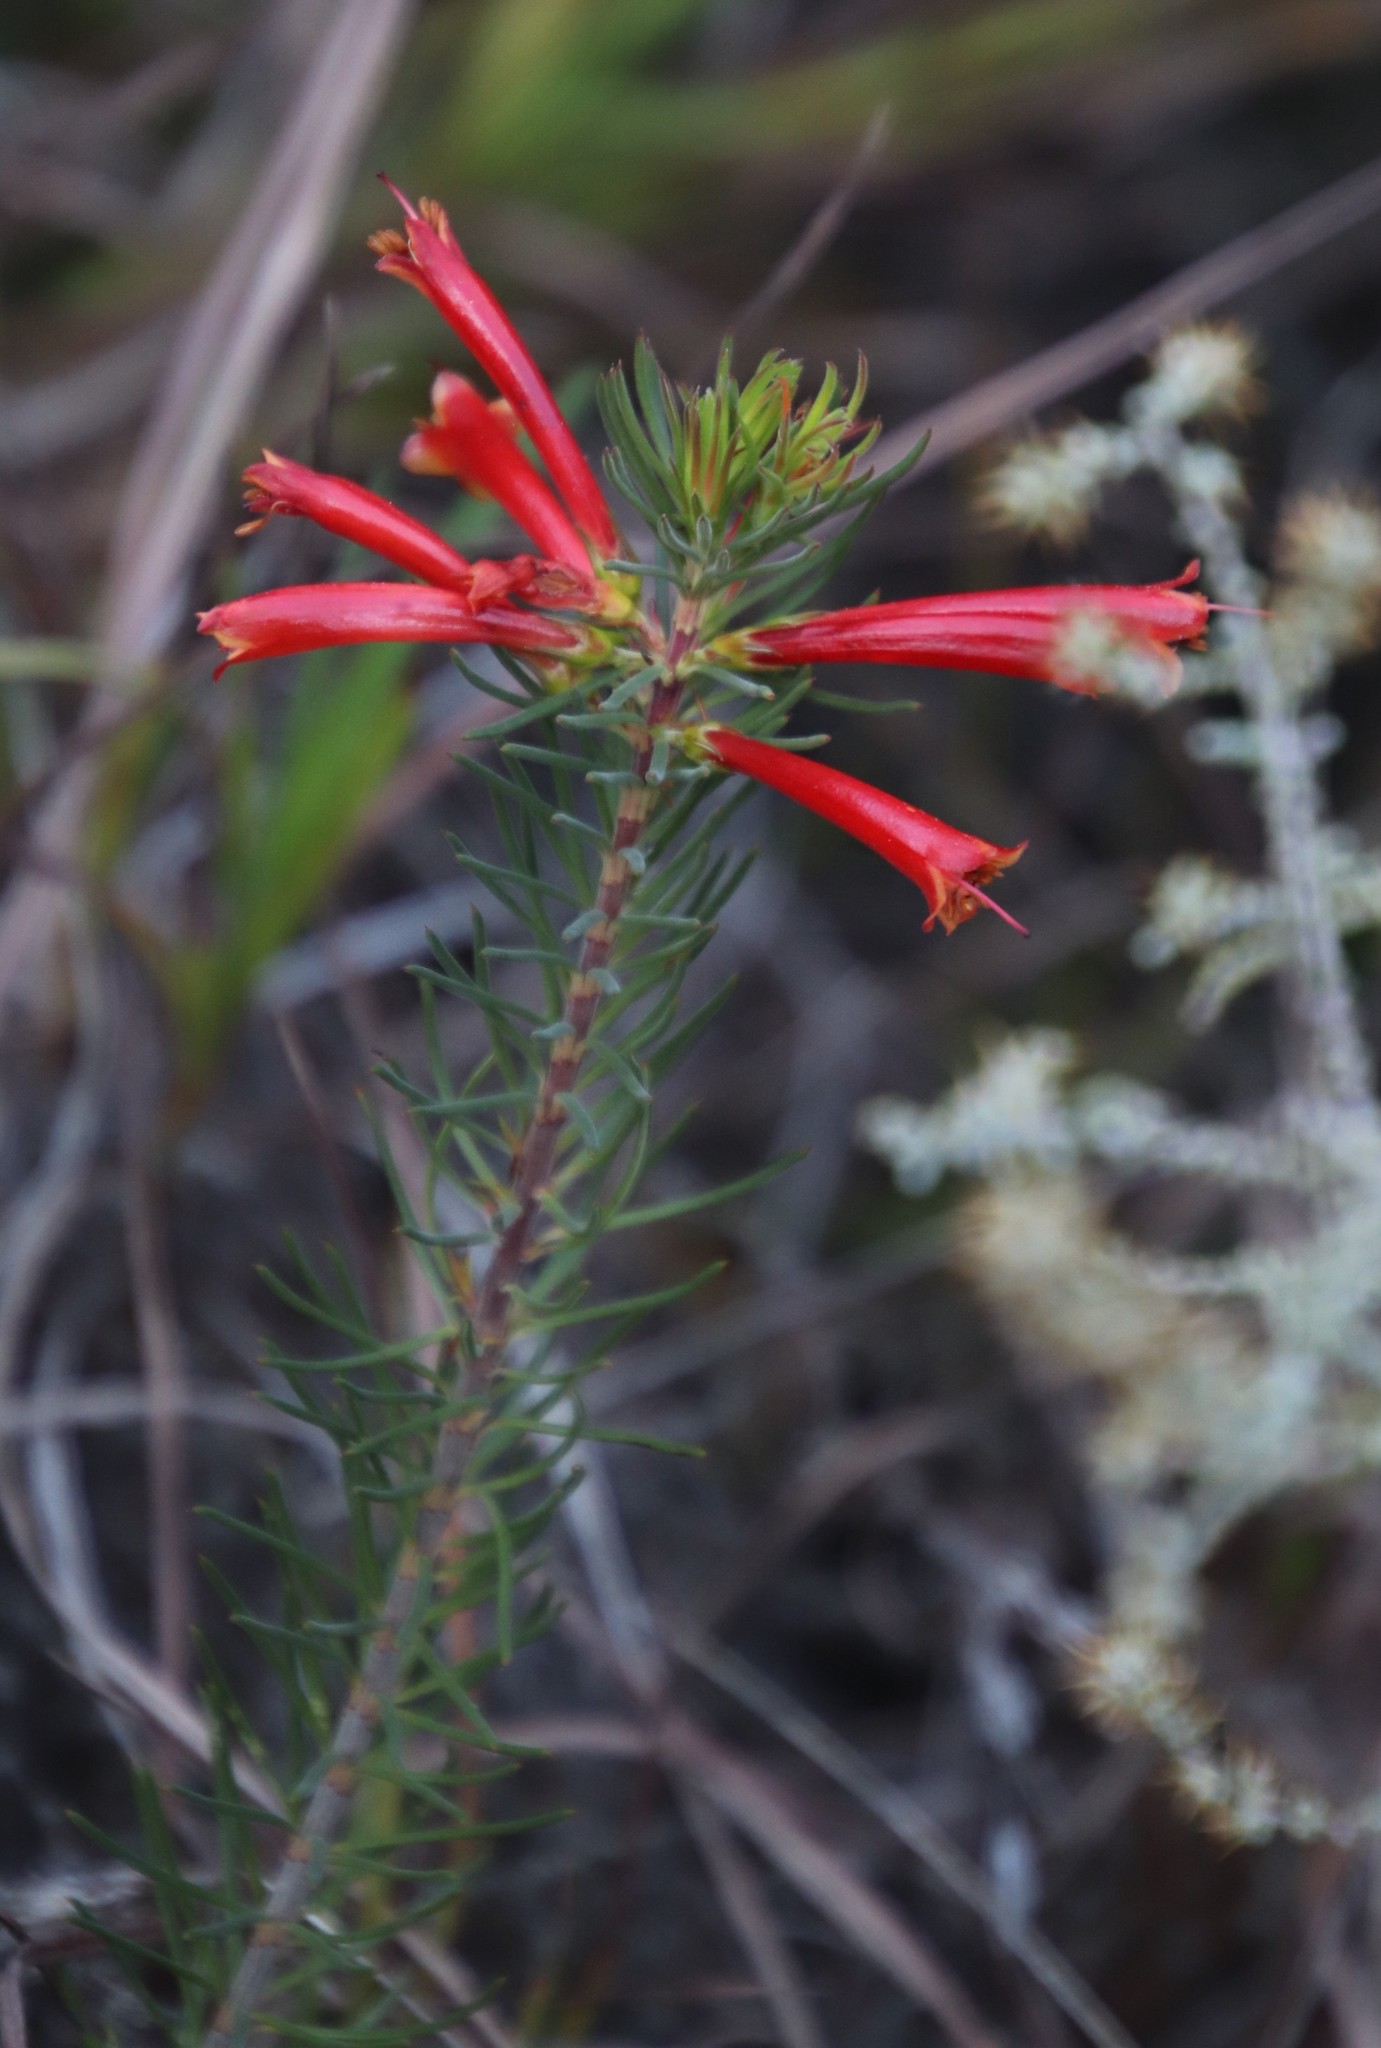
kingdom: Plantae
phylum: Tracheophyta
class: Magnoliopsida
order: Ericales
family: Ericaceae
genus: Erica
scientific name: Erica grandiflora
